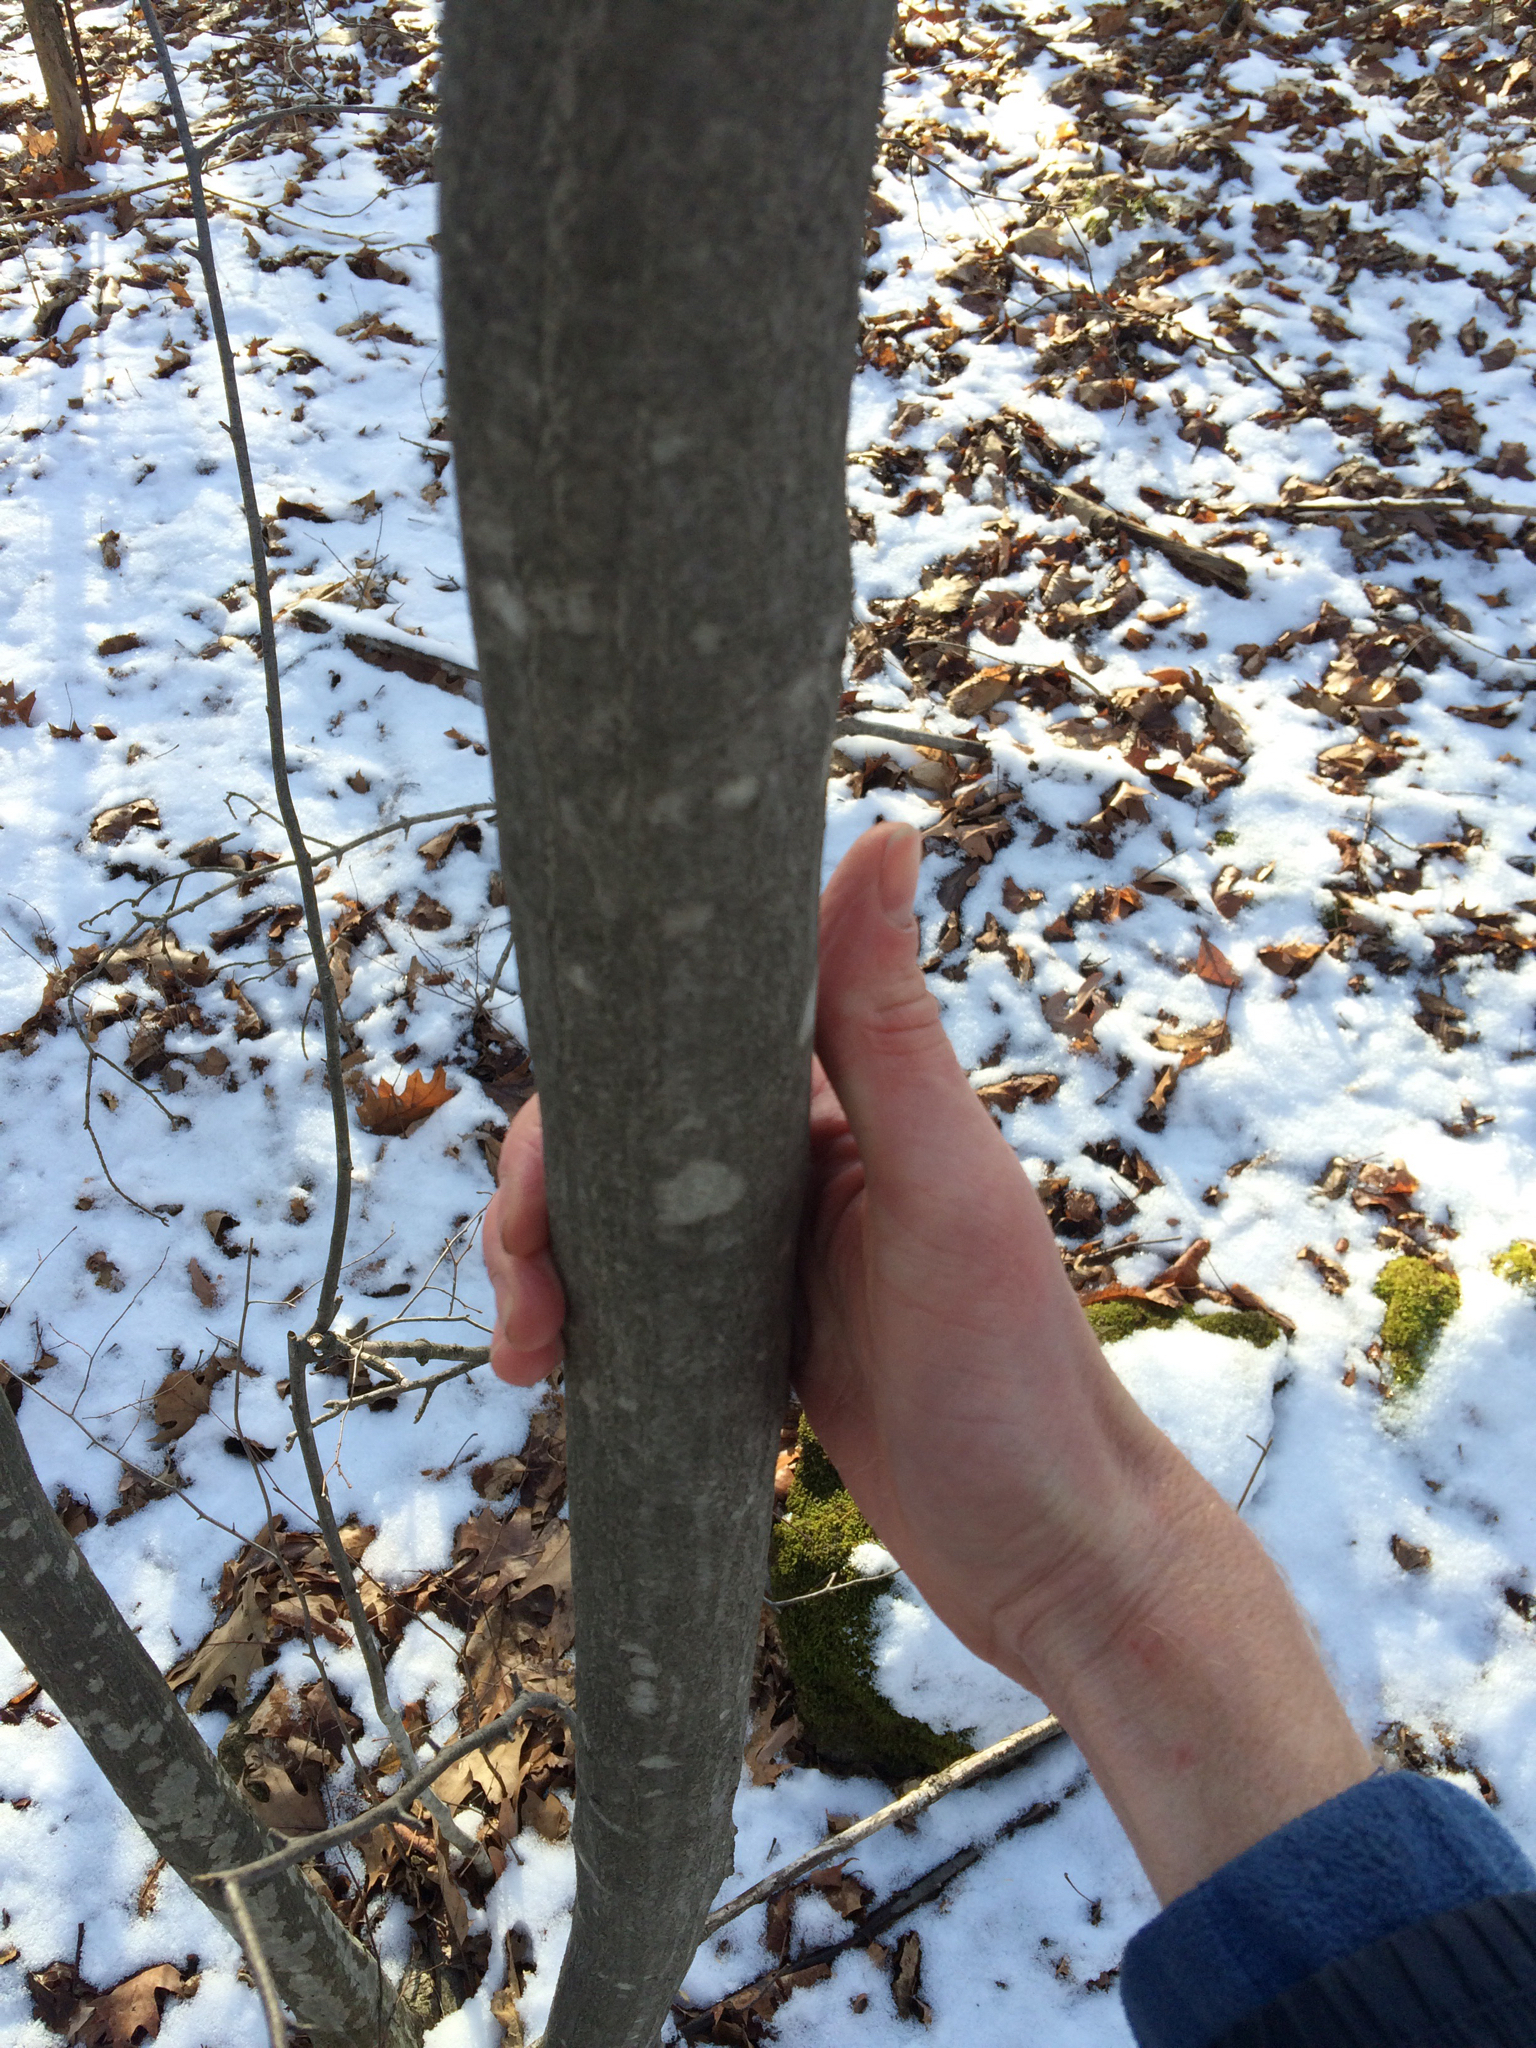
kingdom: Plantae
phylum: Tracheophyta
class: Magnoliopsida
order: Fagales
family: Betulaceae
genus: Carpinus
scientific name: Carpinus caroliniana
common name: American hornbeam
